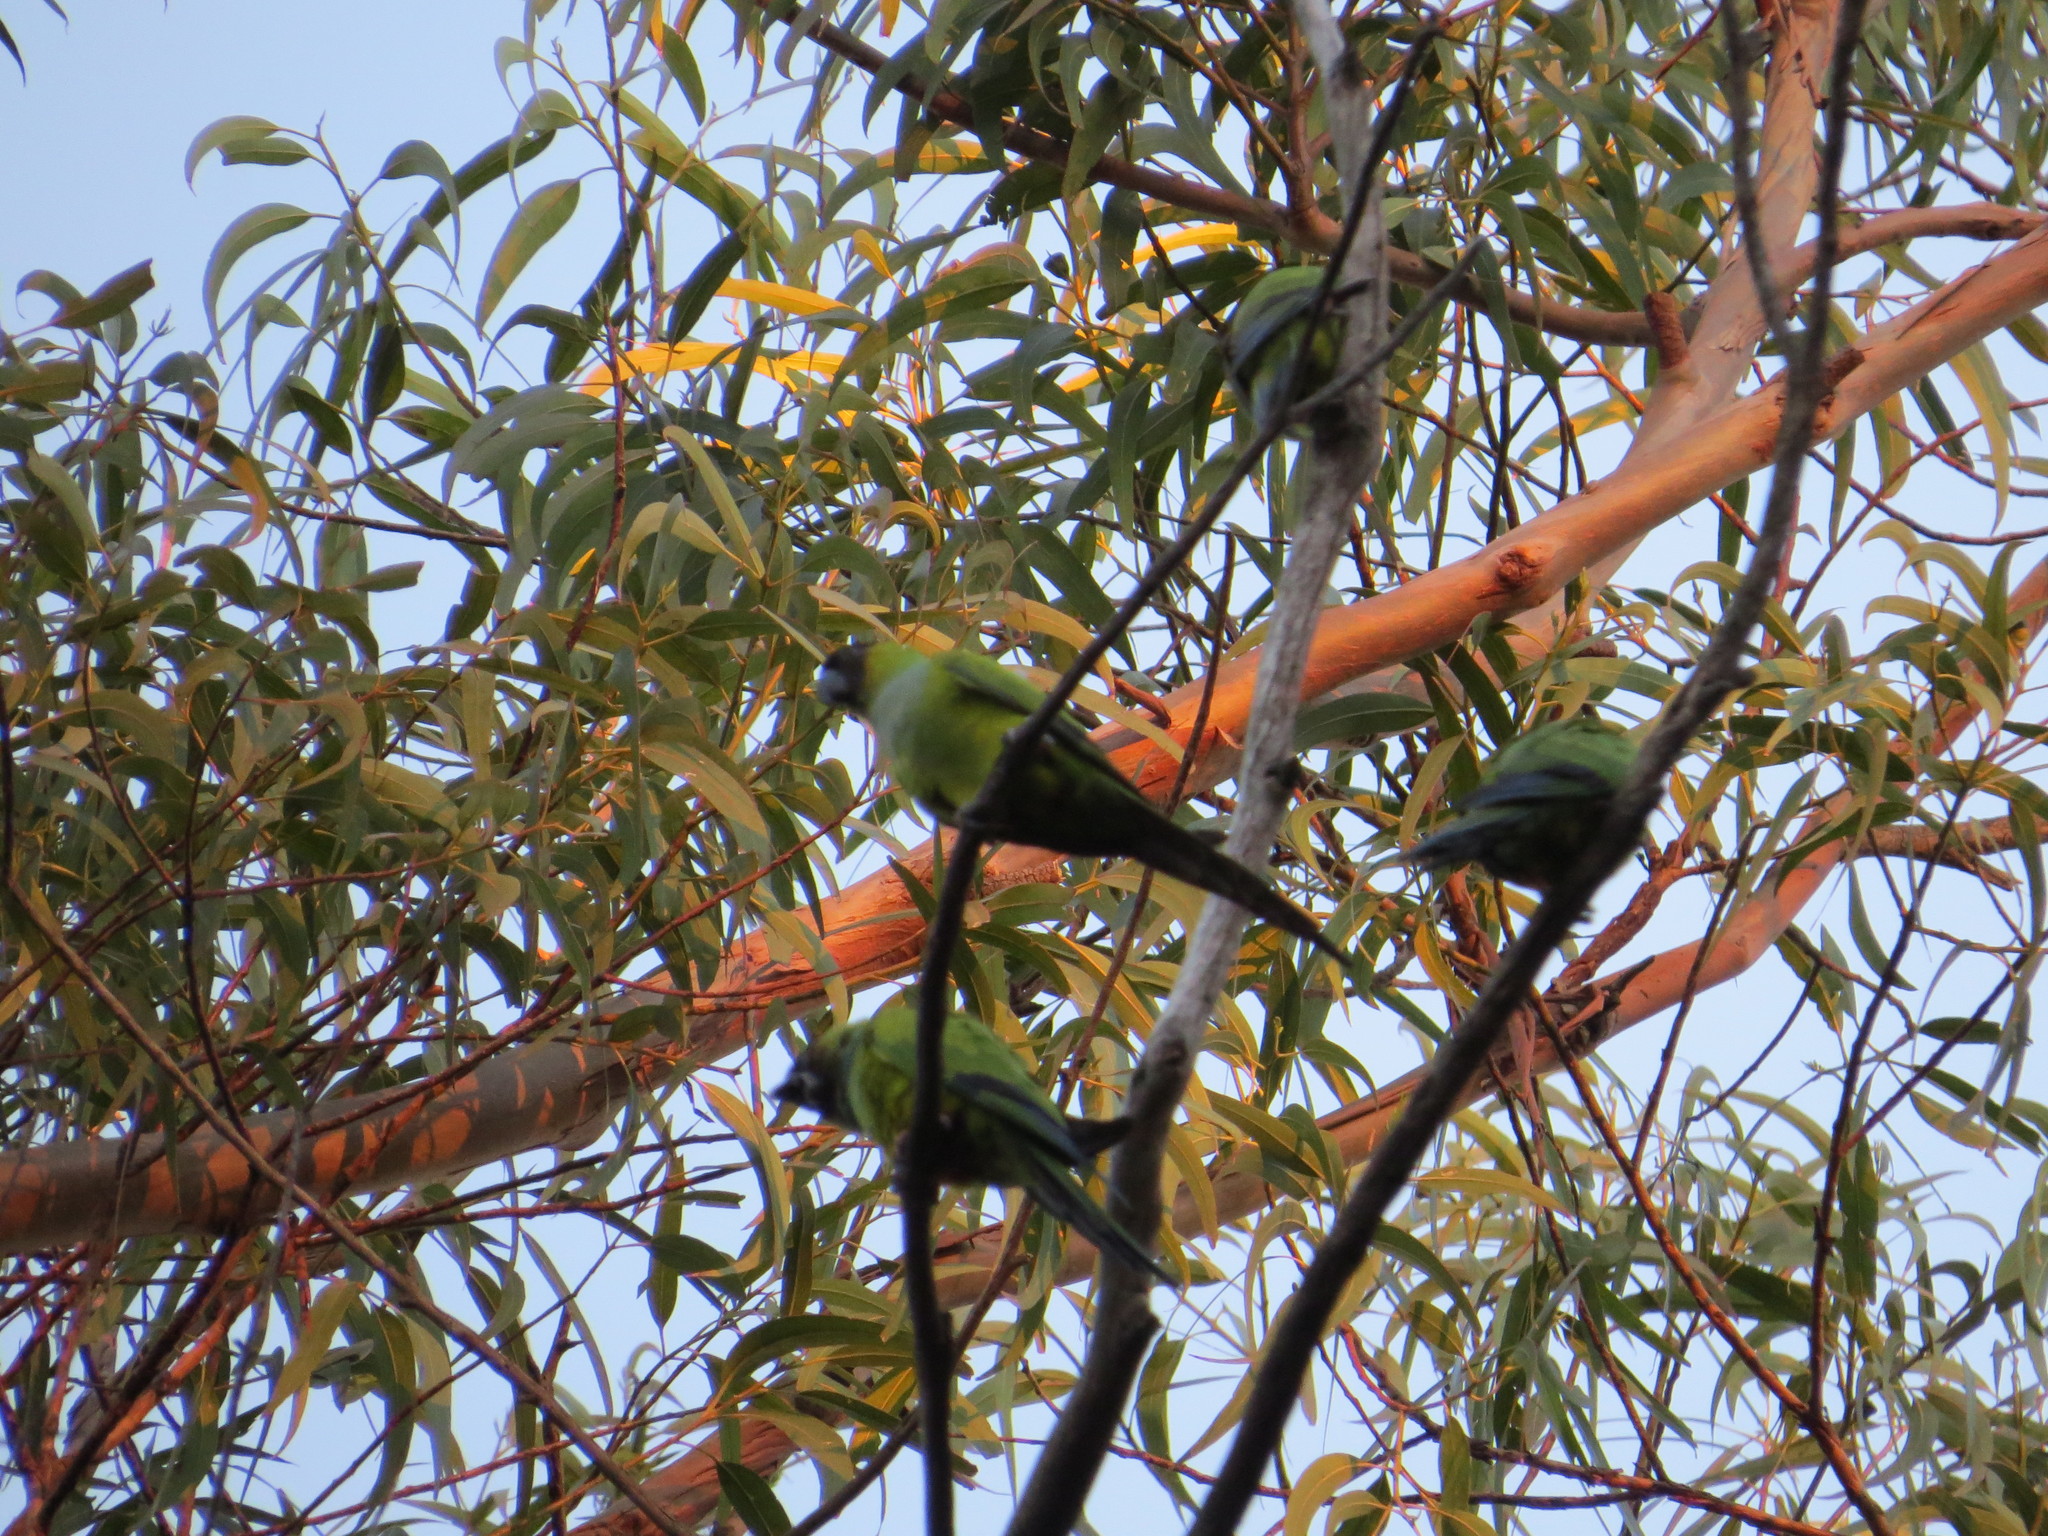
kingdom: Animalia
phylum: Chordata
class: Aves
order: Psittaciformes
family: Psittacidae
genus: Nandayus
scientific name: Nandayus nenday
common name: Nanday parakeet
